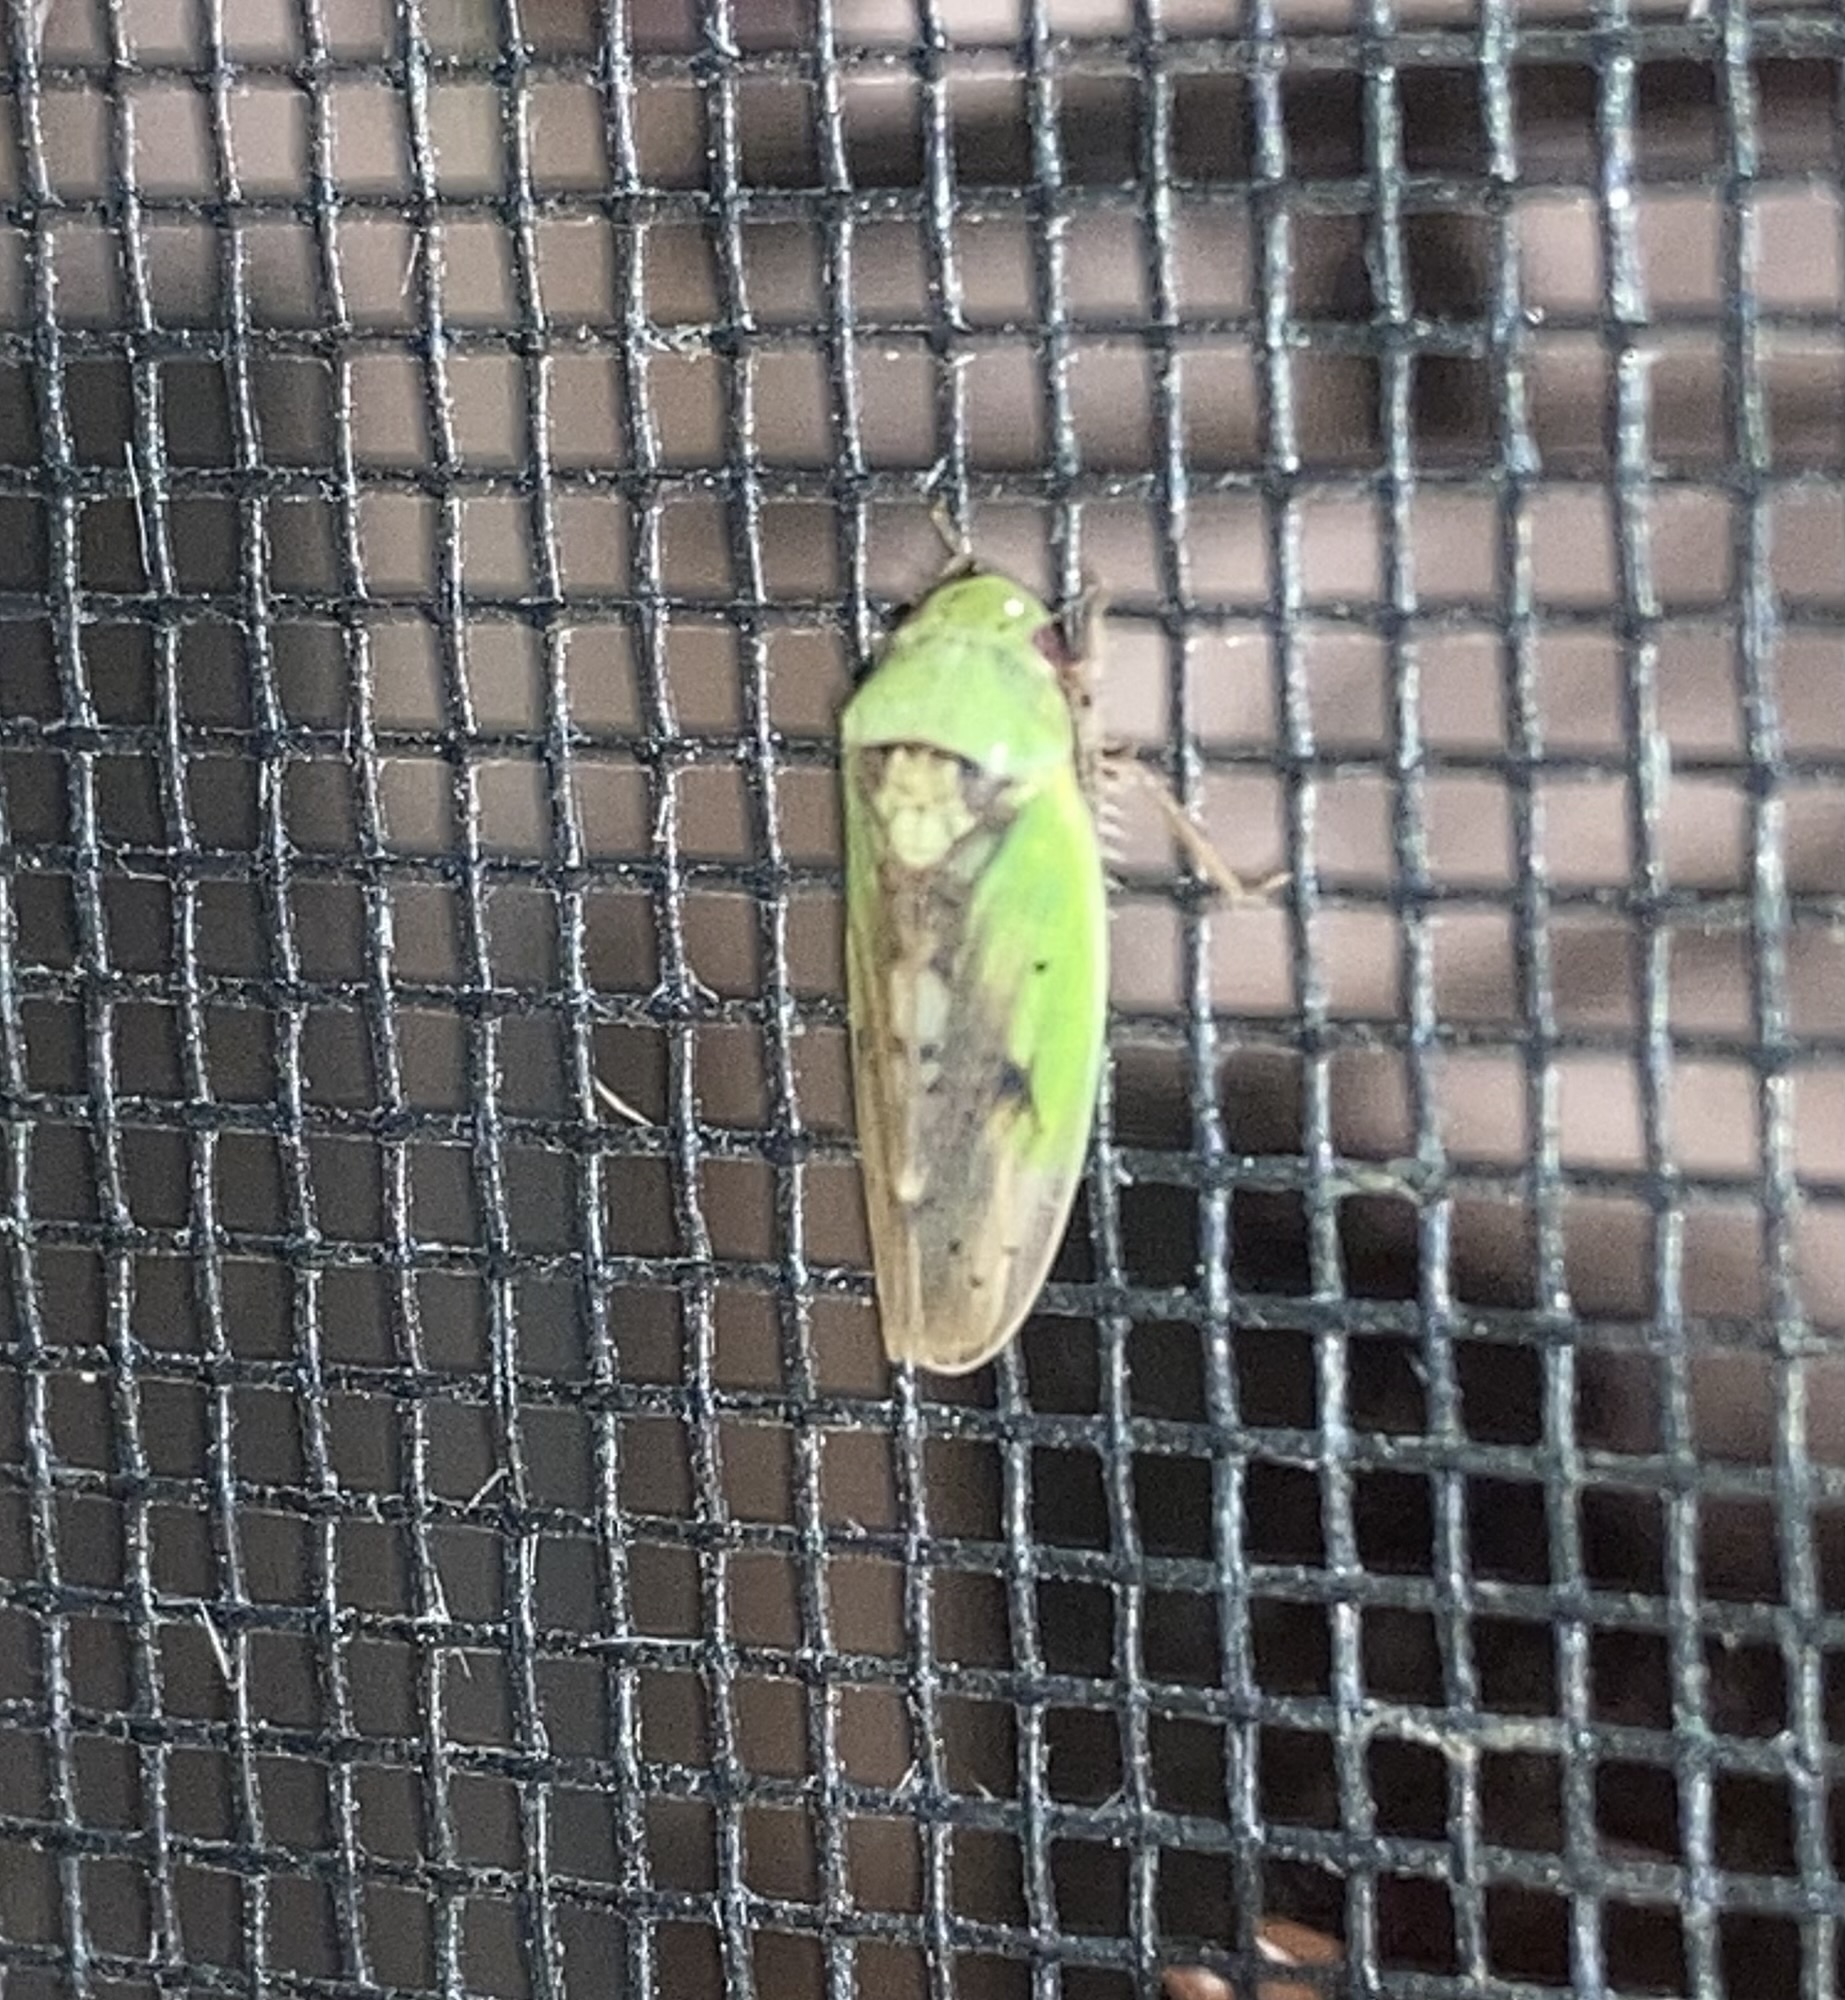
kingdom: Animalia
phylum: Arthropoda
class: Insecta
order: Hemiptera
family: Cicadellidae
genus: Ponana
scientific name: Ponana pectoralis
